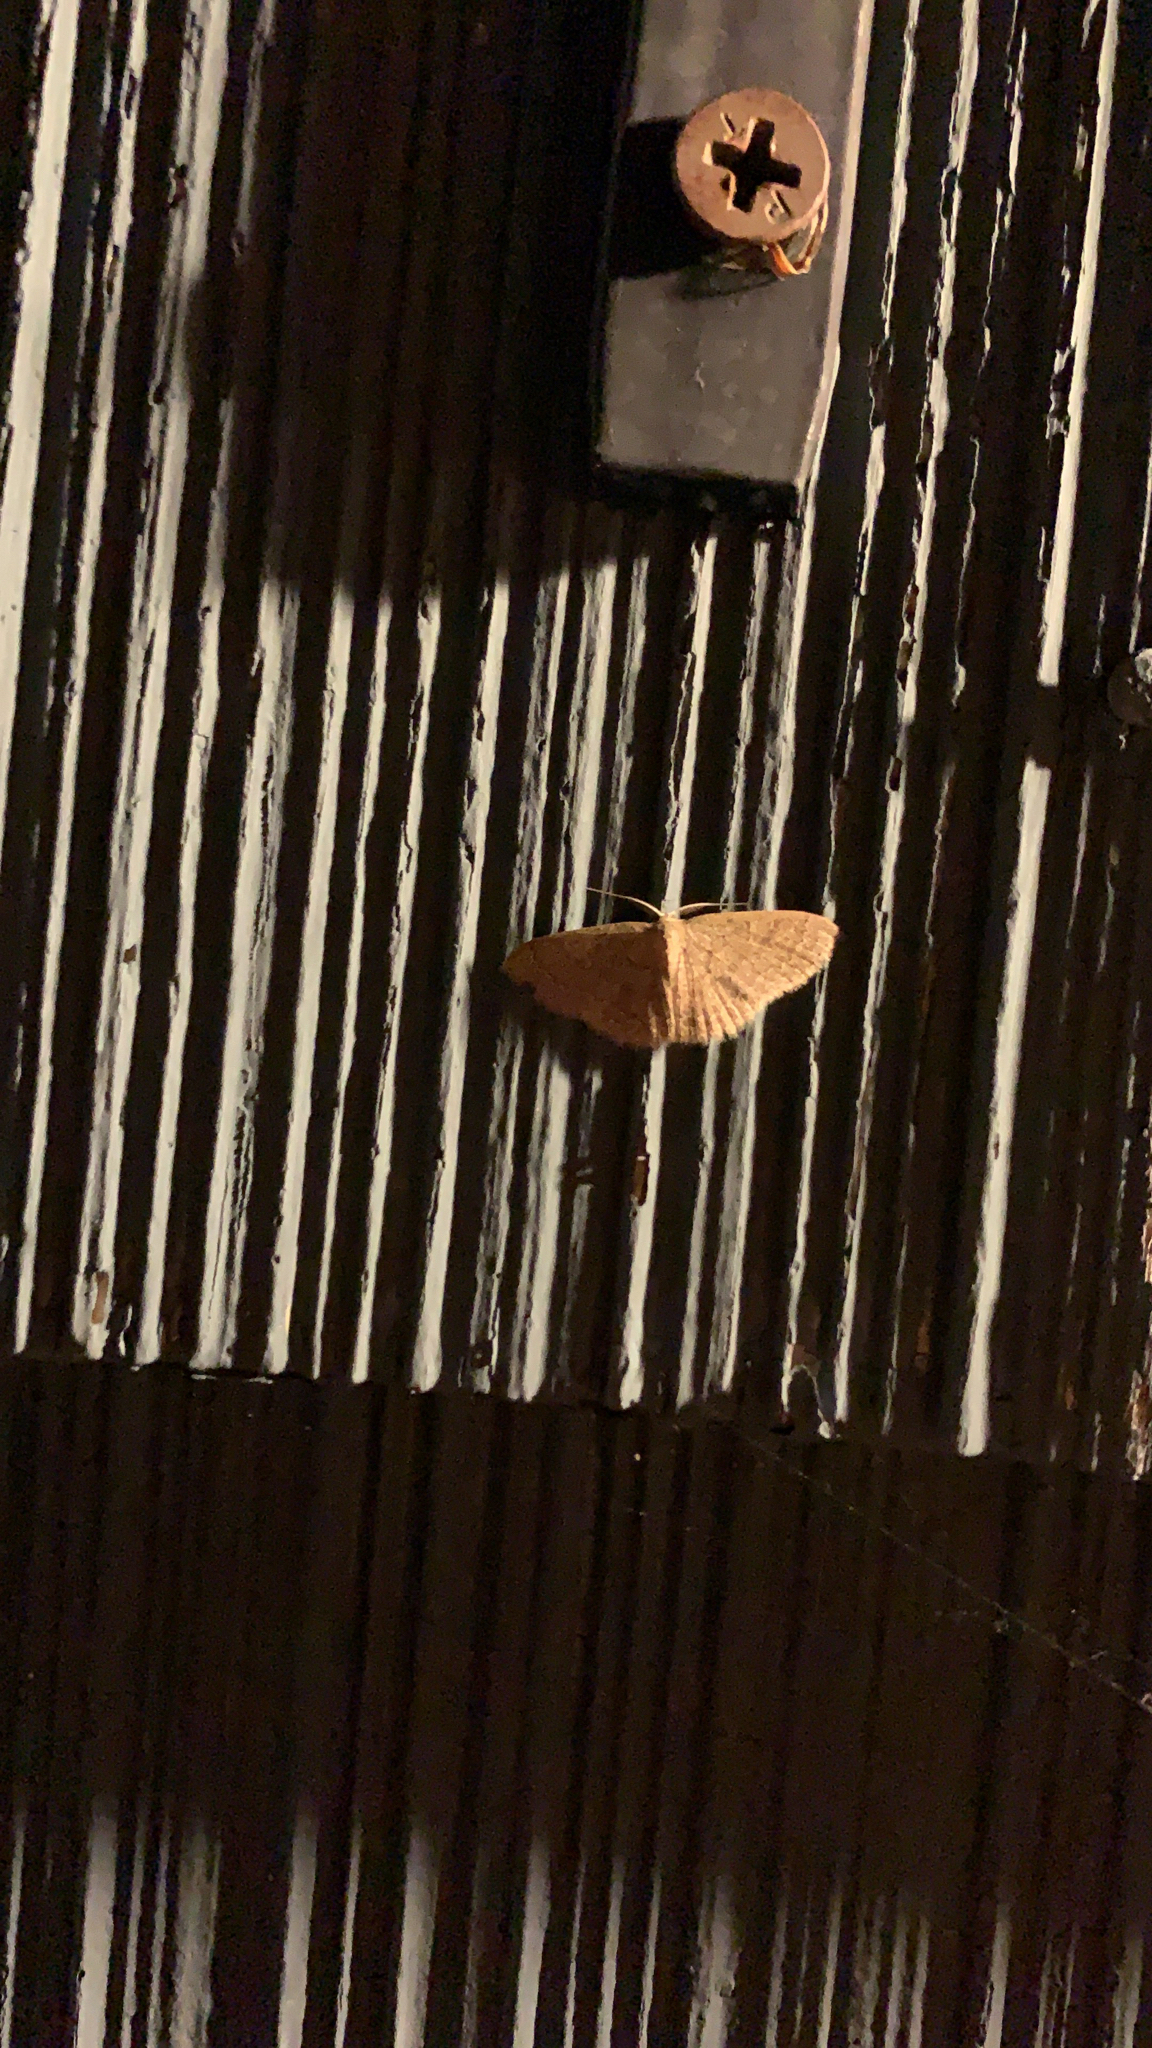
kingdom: Animalia
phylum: Arthropoda
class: Insecta
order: Lepidoptera
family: Geometridae
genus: Pleuroprucha
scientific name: Pleuroprucha insulsaria
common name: Common tan wave
